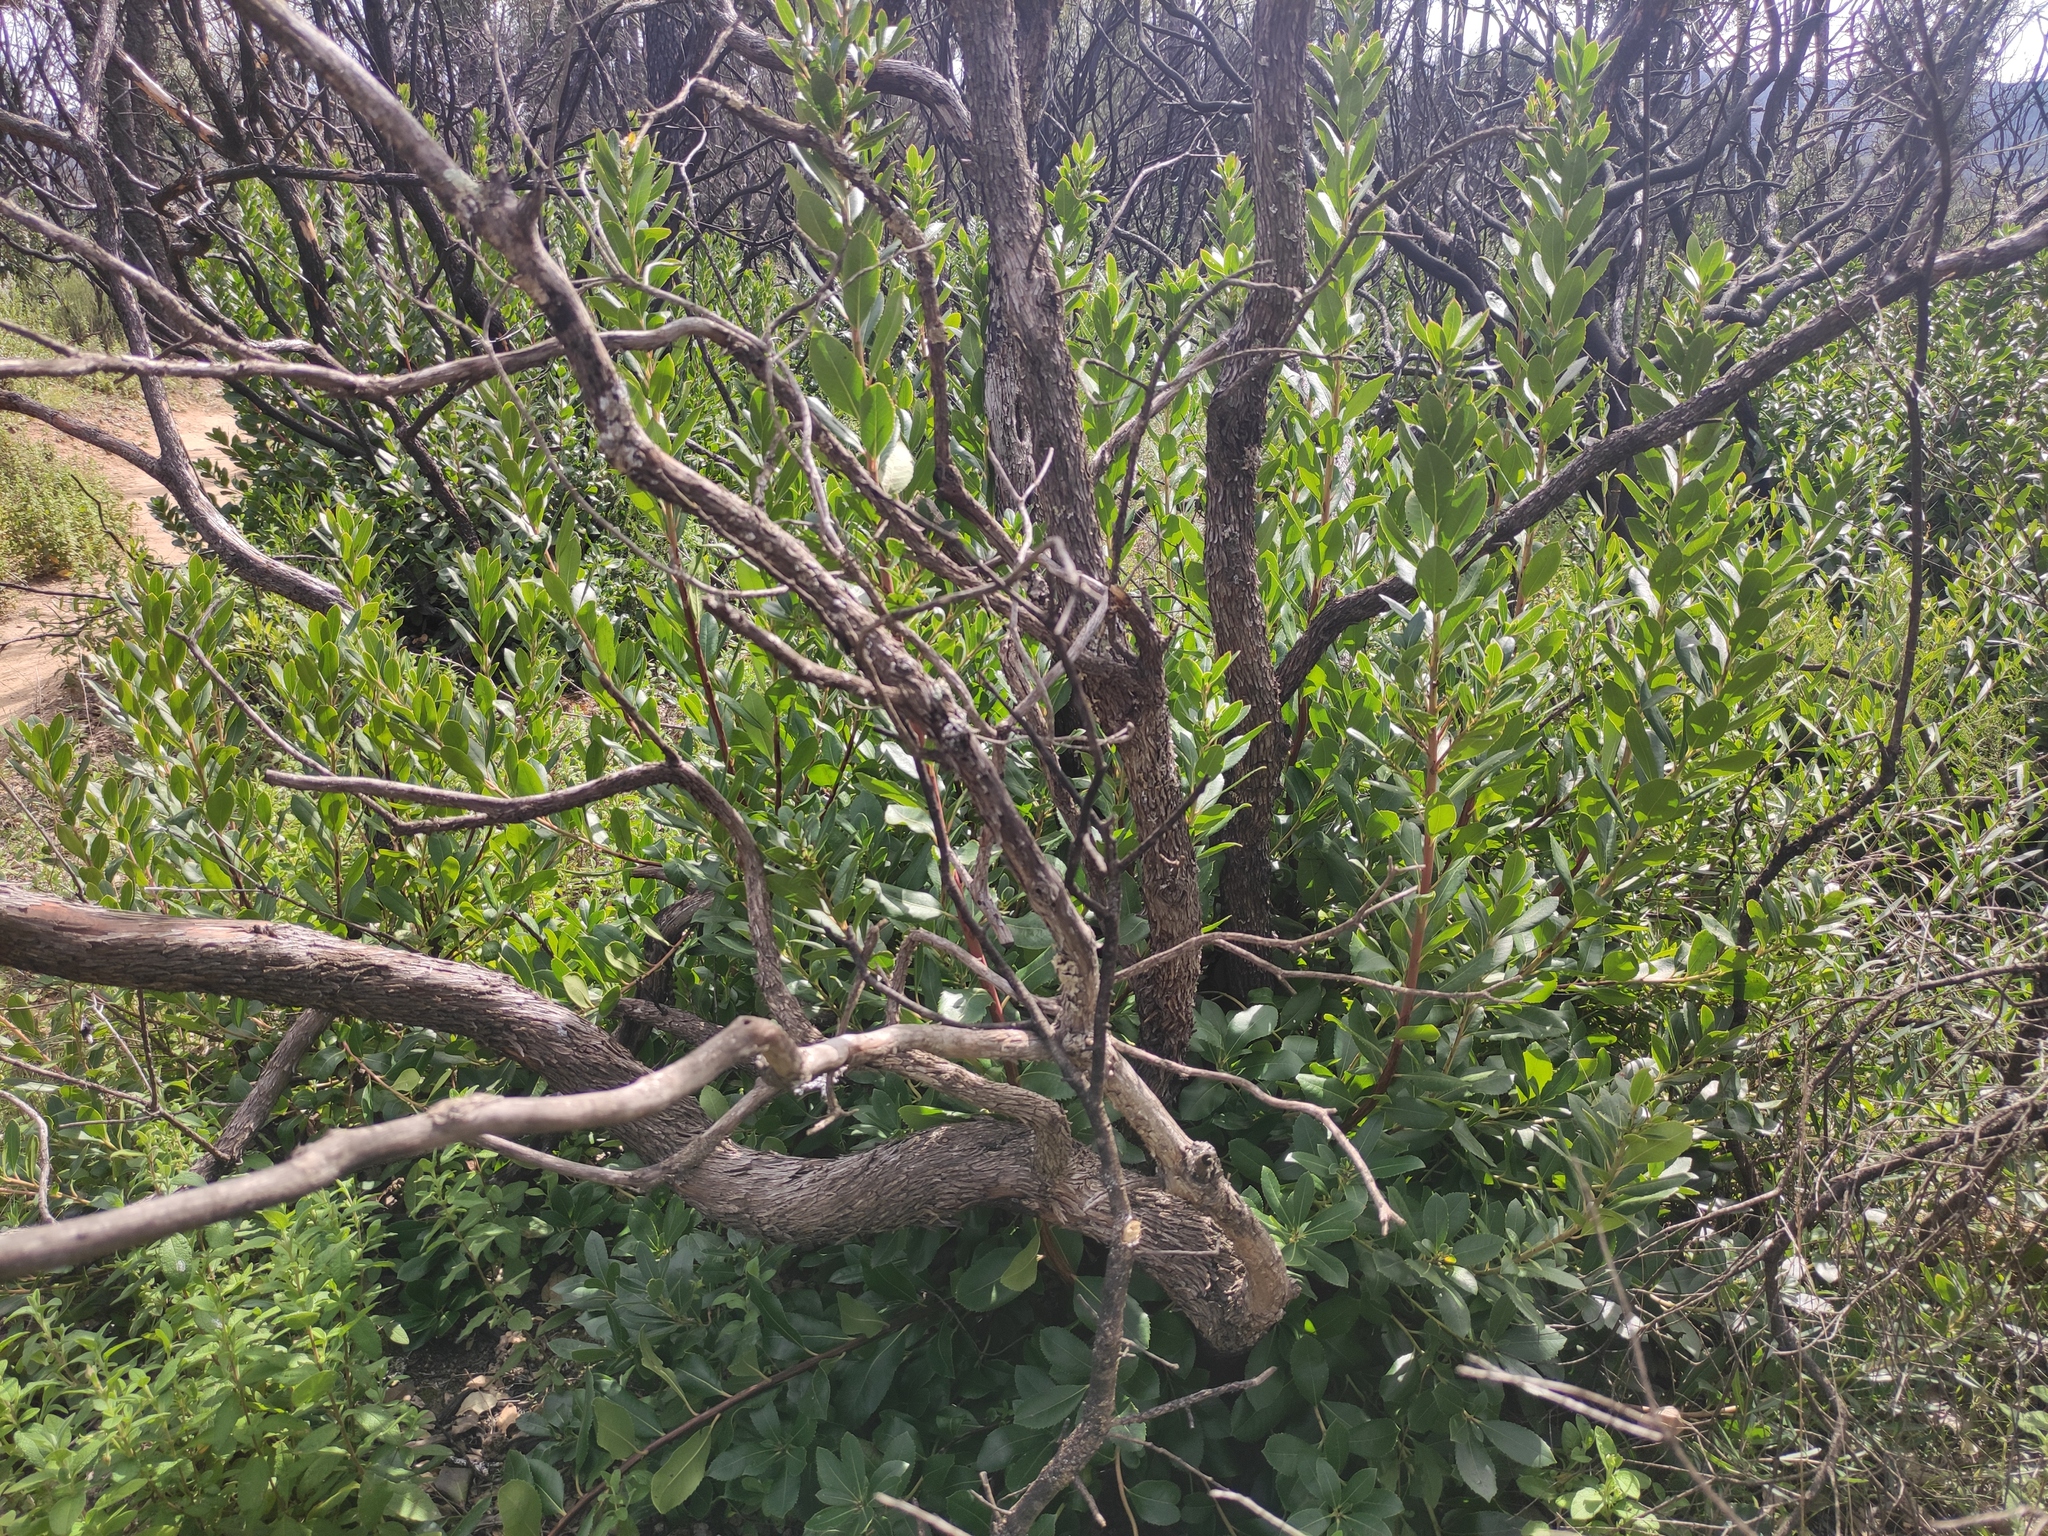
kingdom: Plantae
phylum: Tracheophyta
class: Magnoliopsida
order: Ericales
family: Ericaceae
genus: Arbutus
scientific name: Arbutus unedo
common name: Strawberry-tree
